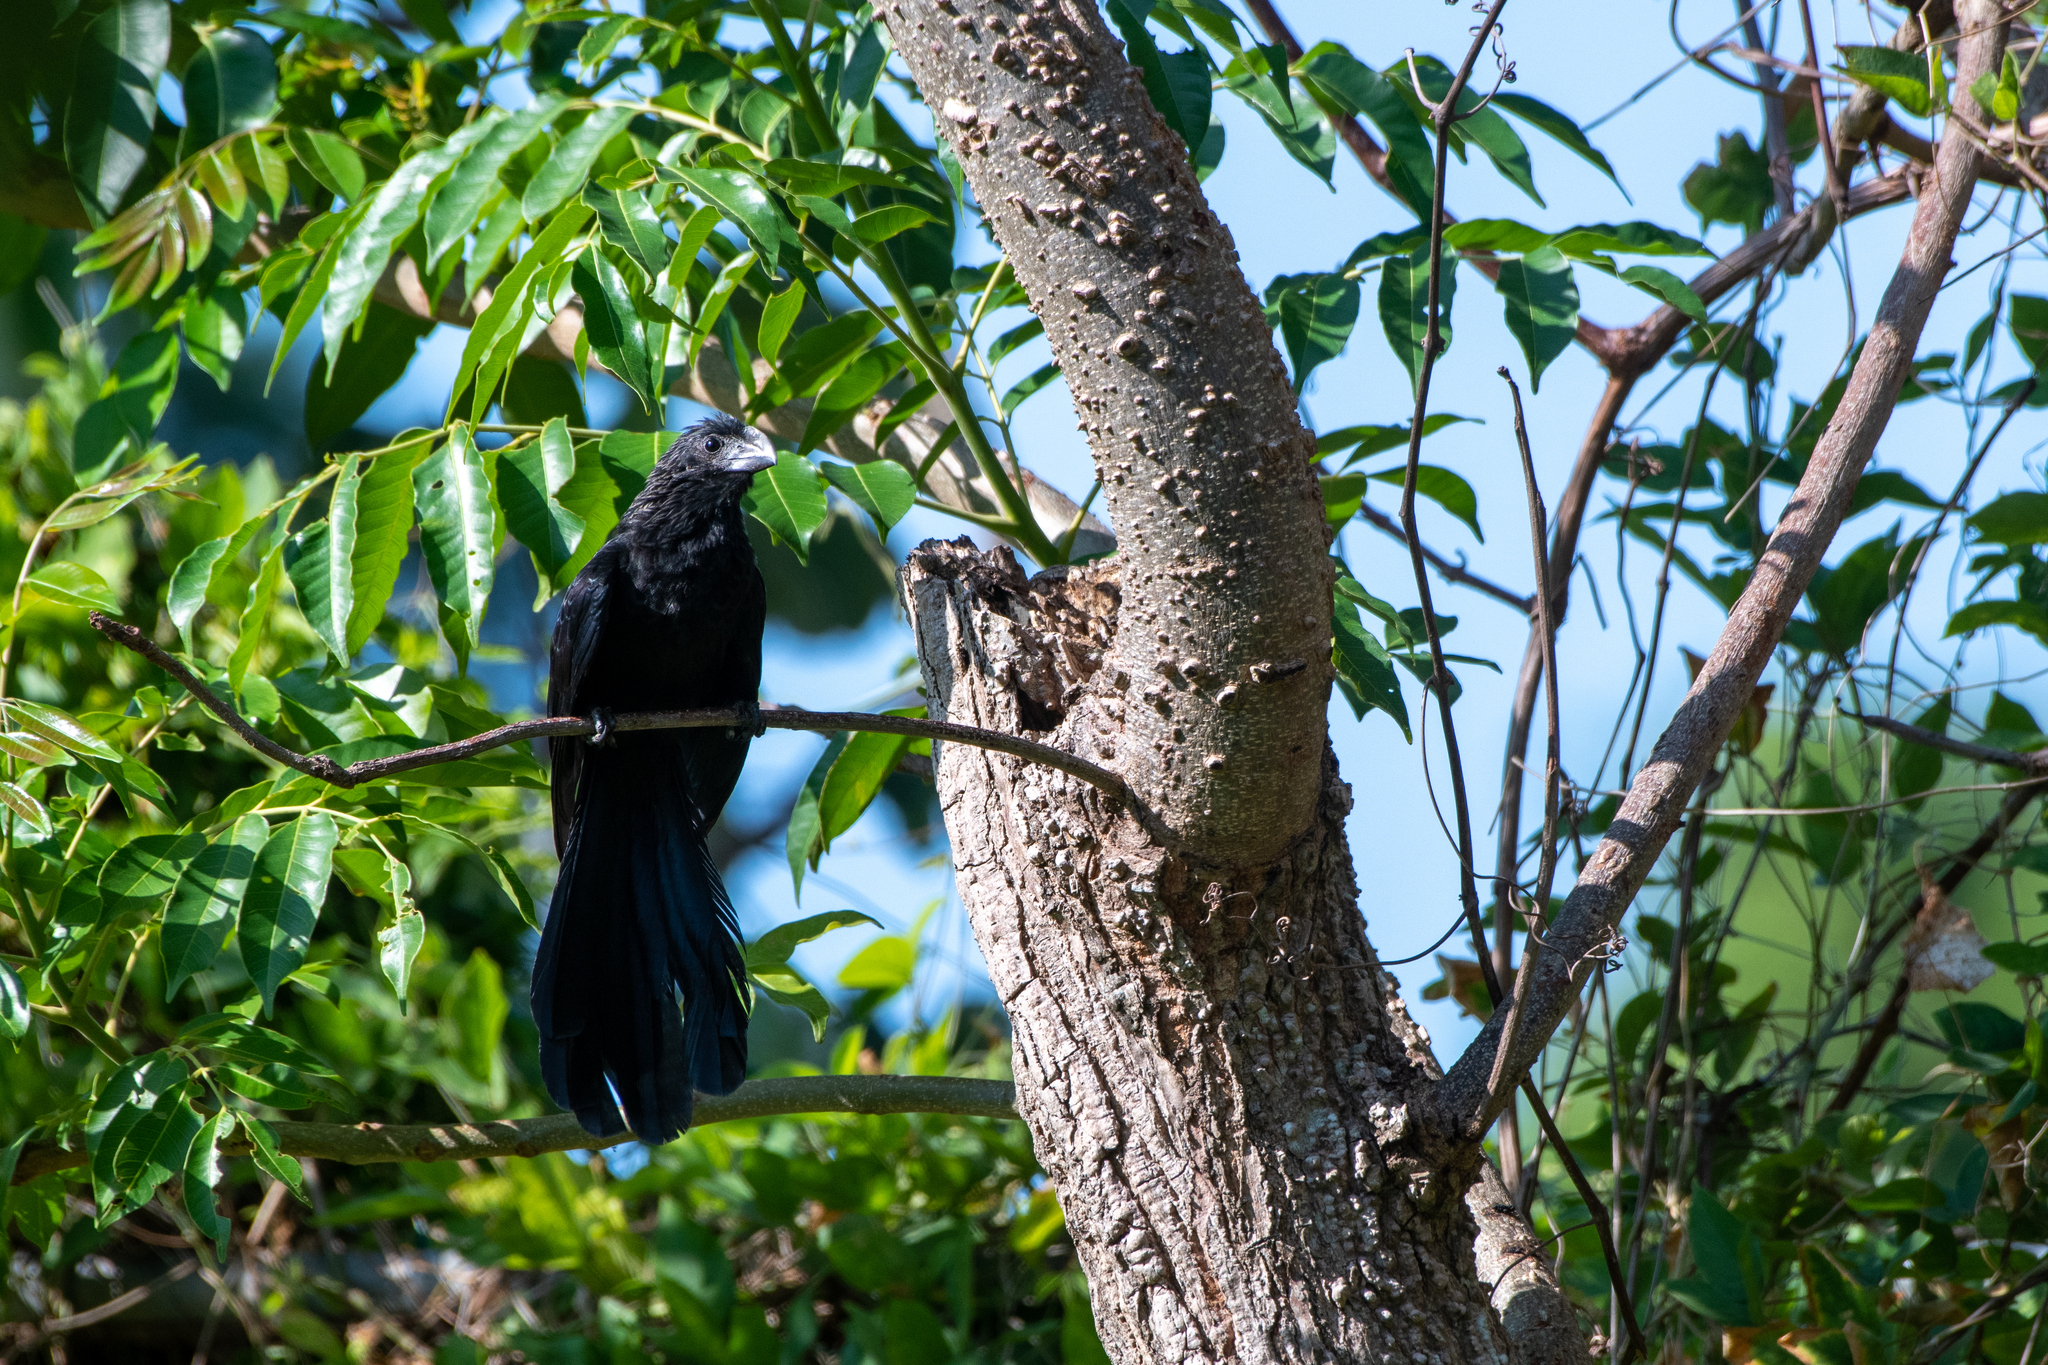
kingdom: Animalia
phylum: Chordata
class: Aves
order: Cuculiformes
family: Cuculidae
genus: Crotophaga
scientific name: Crotophaga ani
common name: Smooth-billed ani
